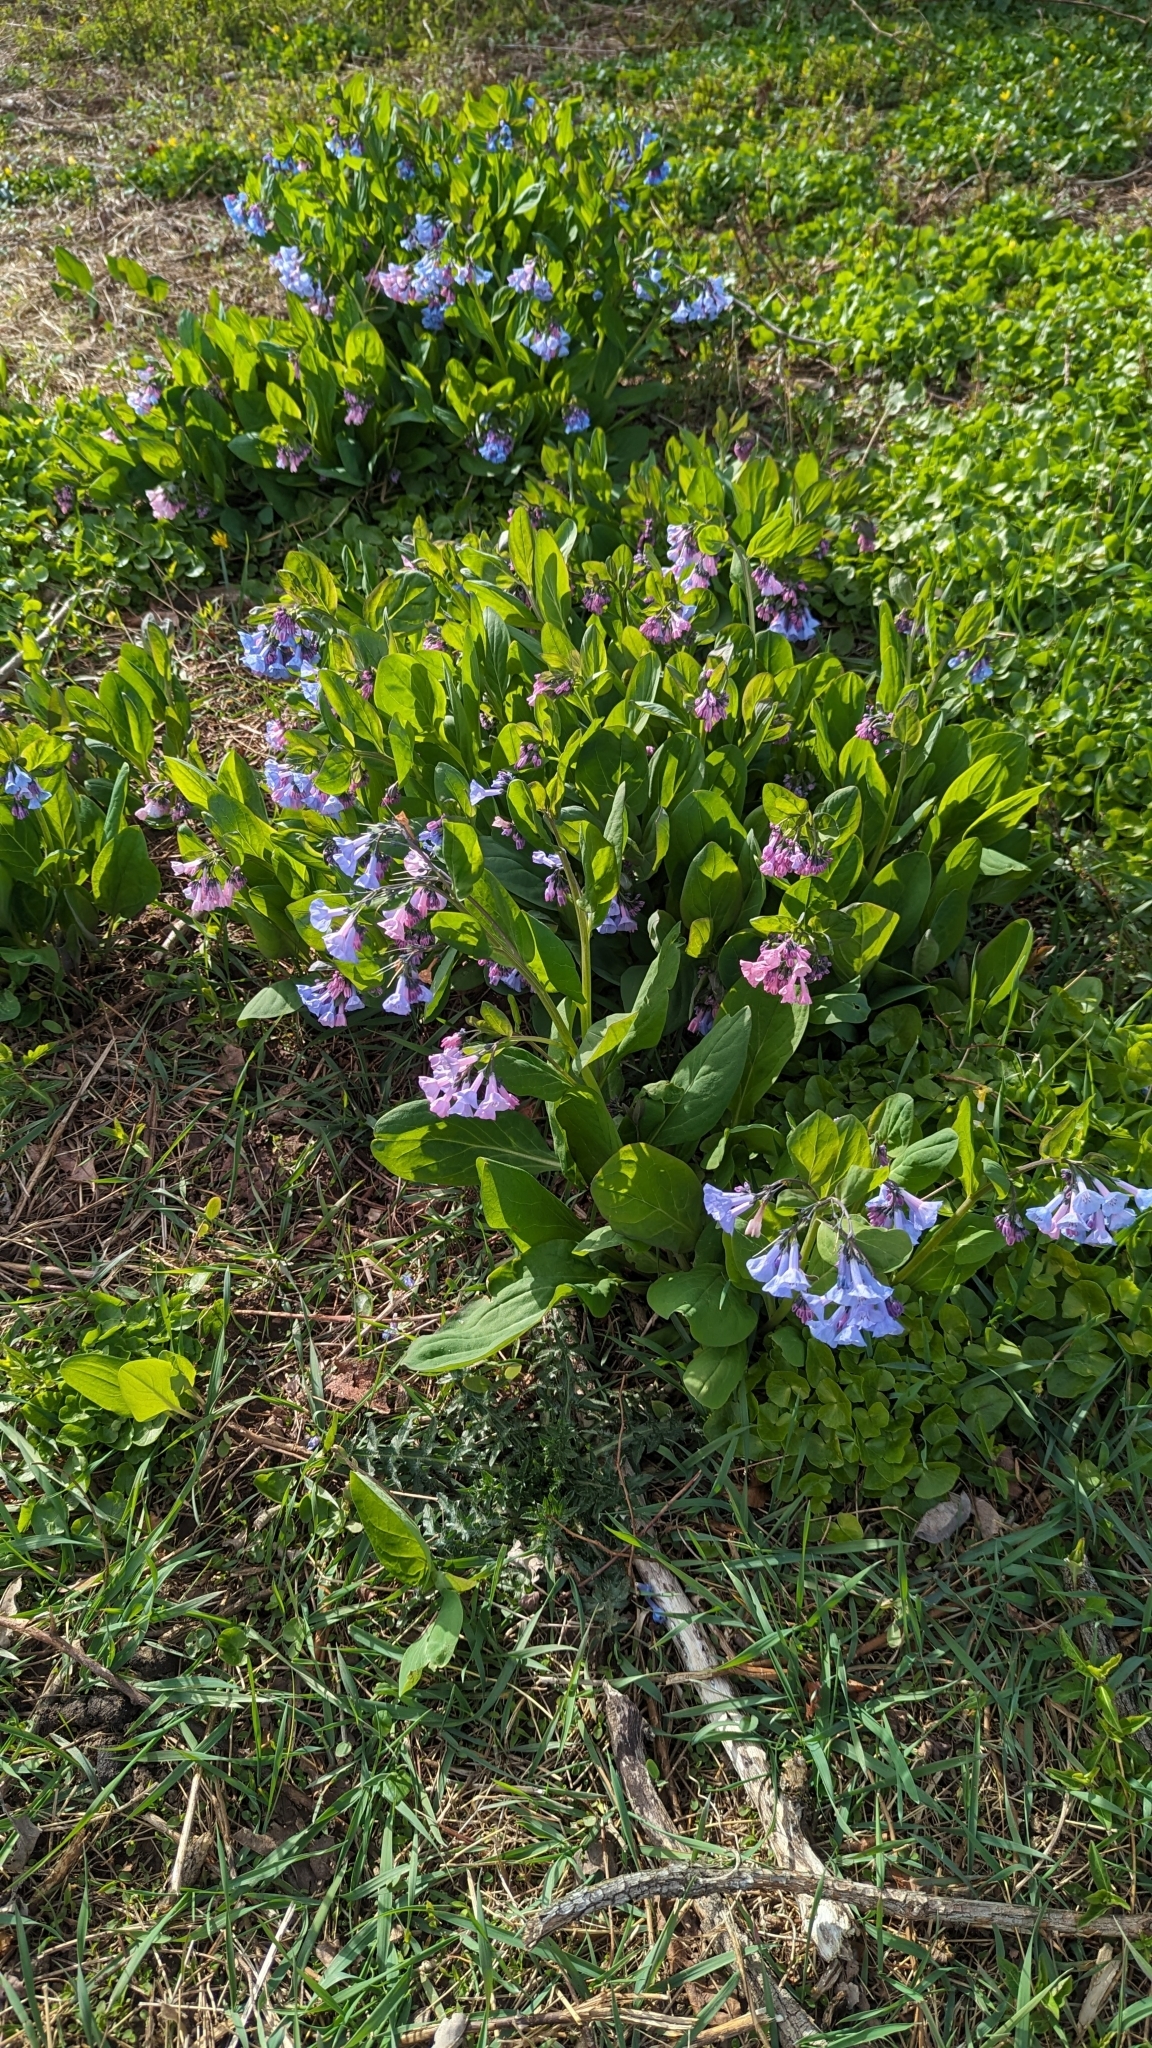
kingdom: Plantae
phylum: Tracheophyta
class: Magnoliopsida
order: Boraginales
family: Boraginaceae
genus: Mertensia
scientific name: Mertensia virginica
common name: Virginia bluebells
